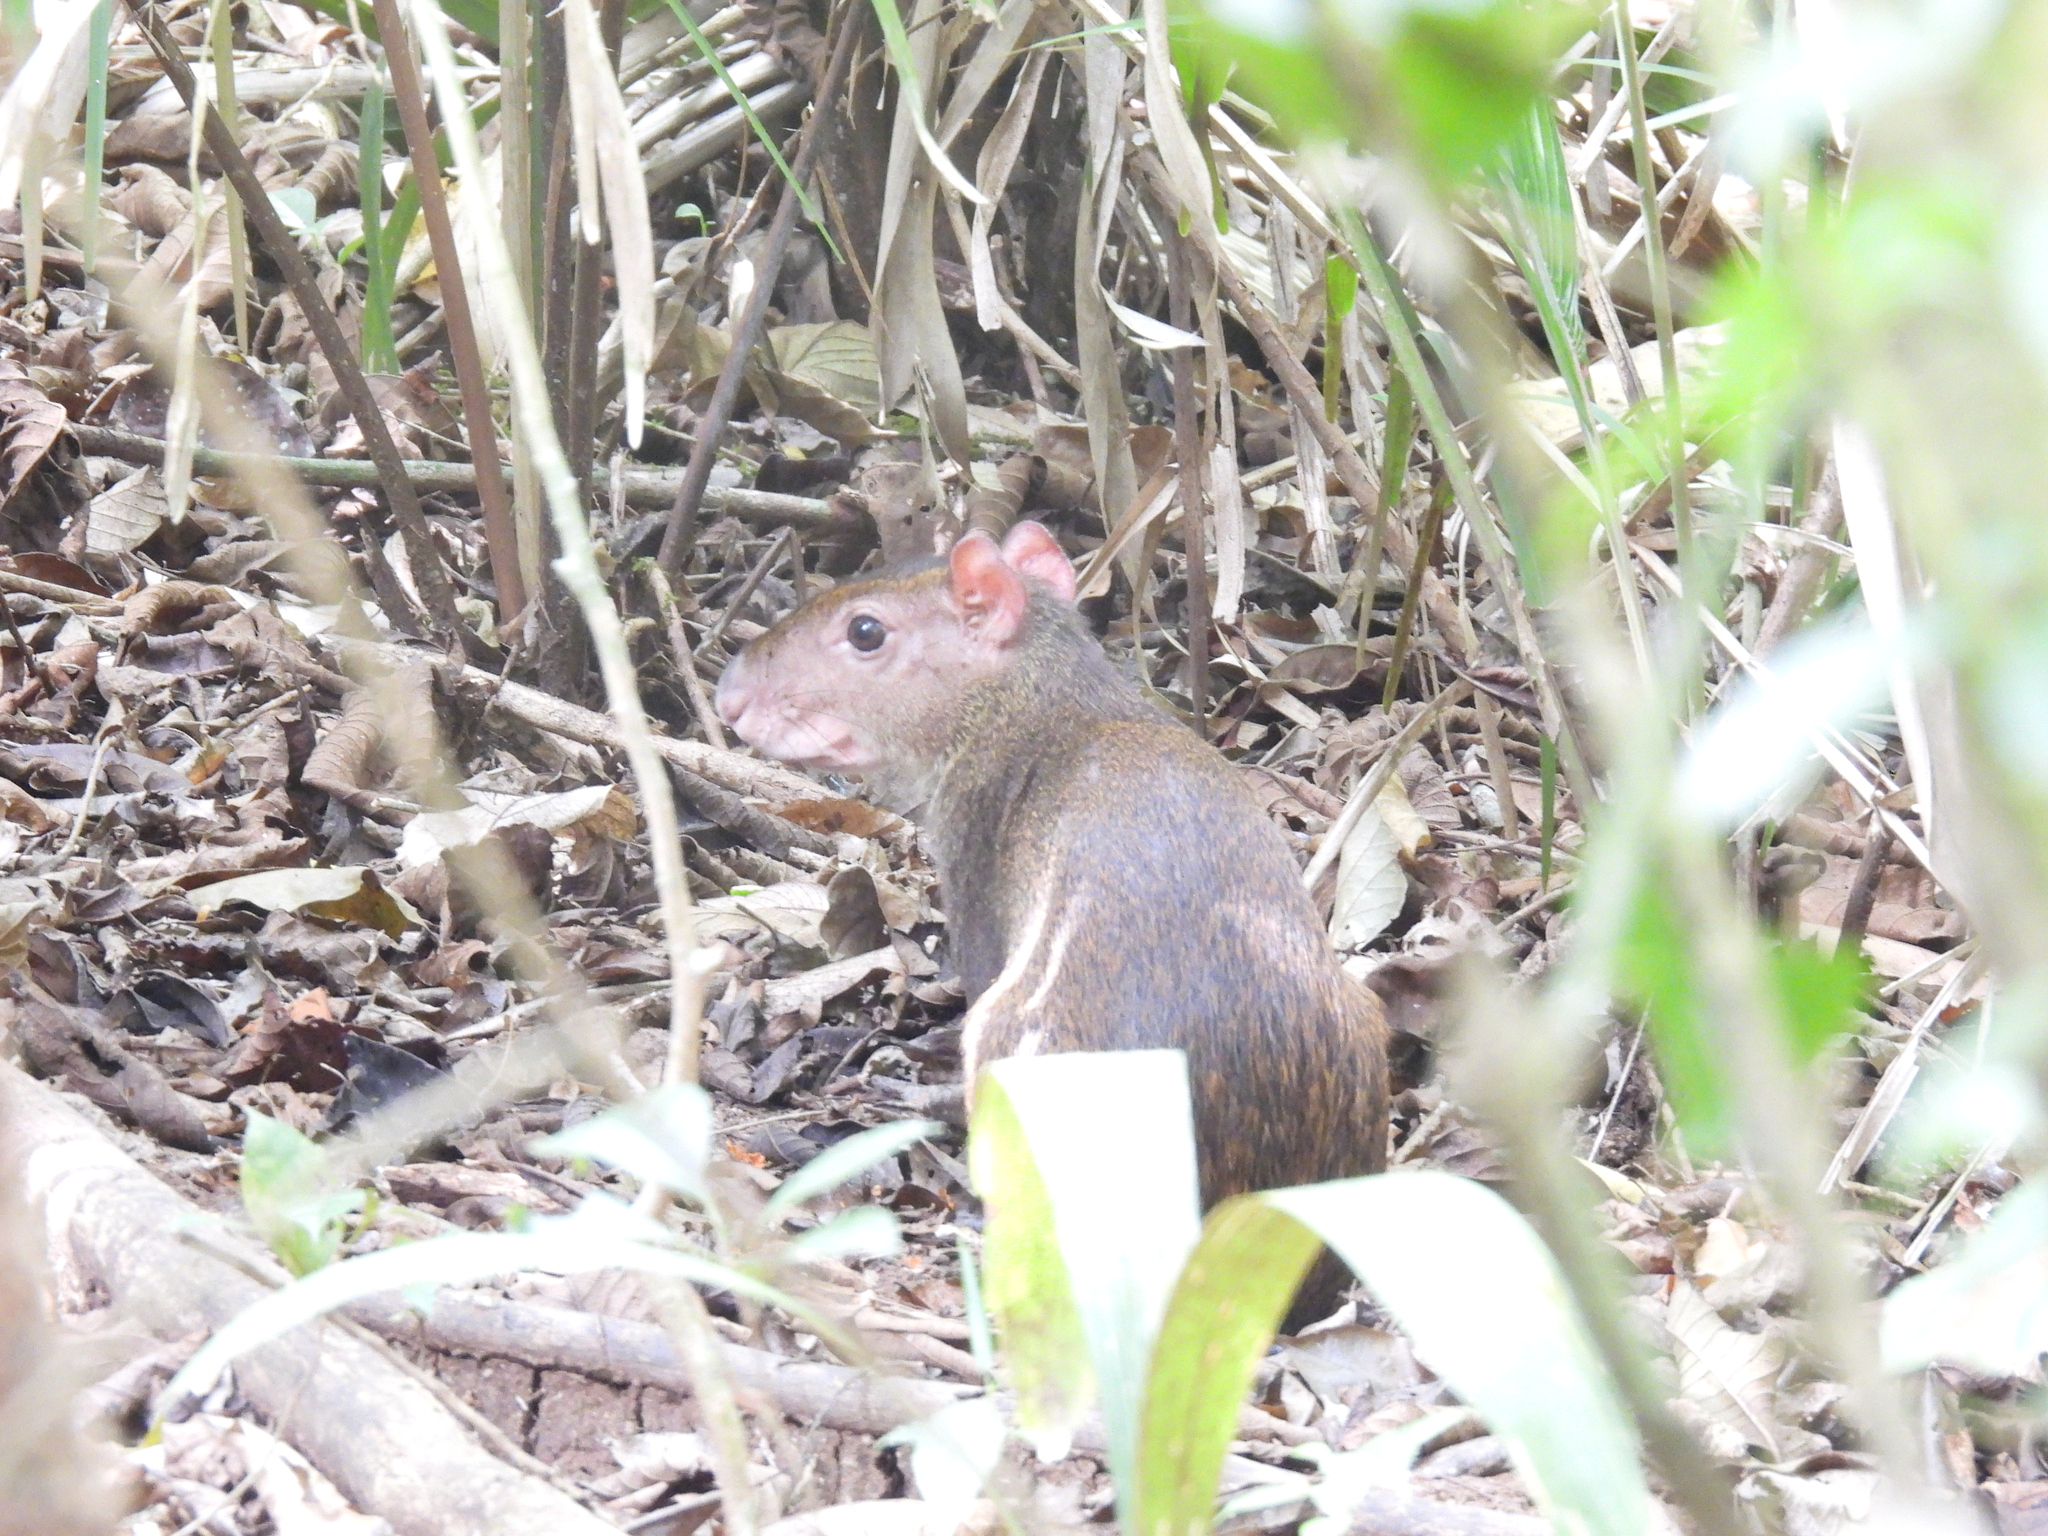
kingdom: Animalia
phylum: Chordata
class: Mammalia
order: Rodentia
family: Dasyproctidae
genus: Dasyprocta
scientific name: Dasyprocta punctata
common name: Central american agouti
